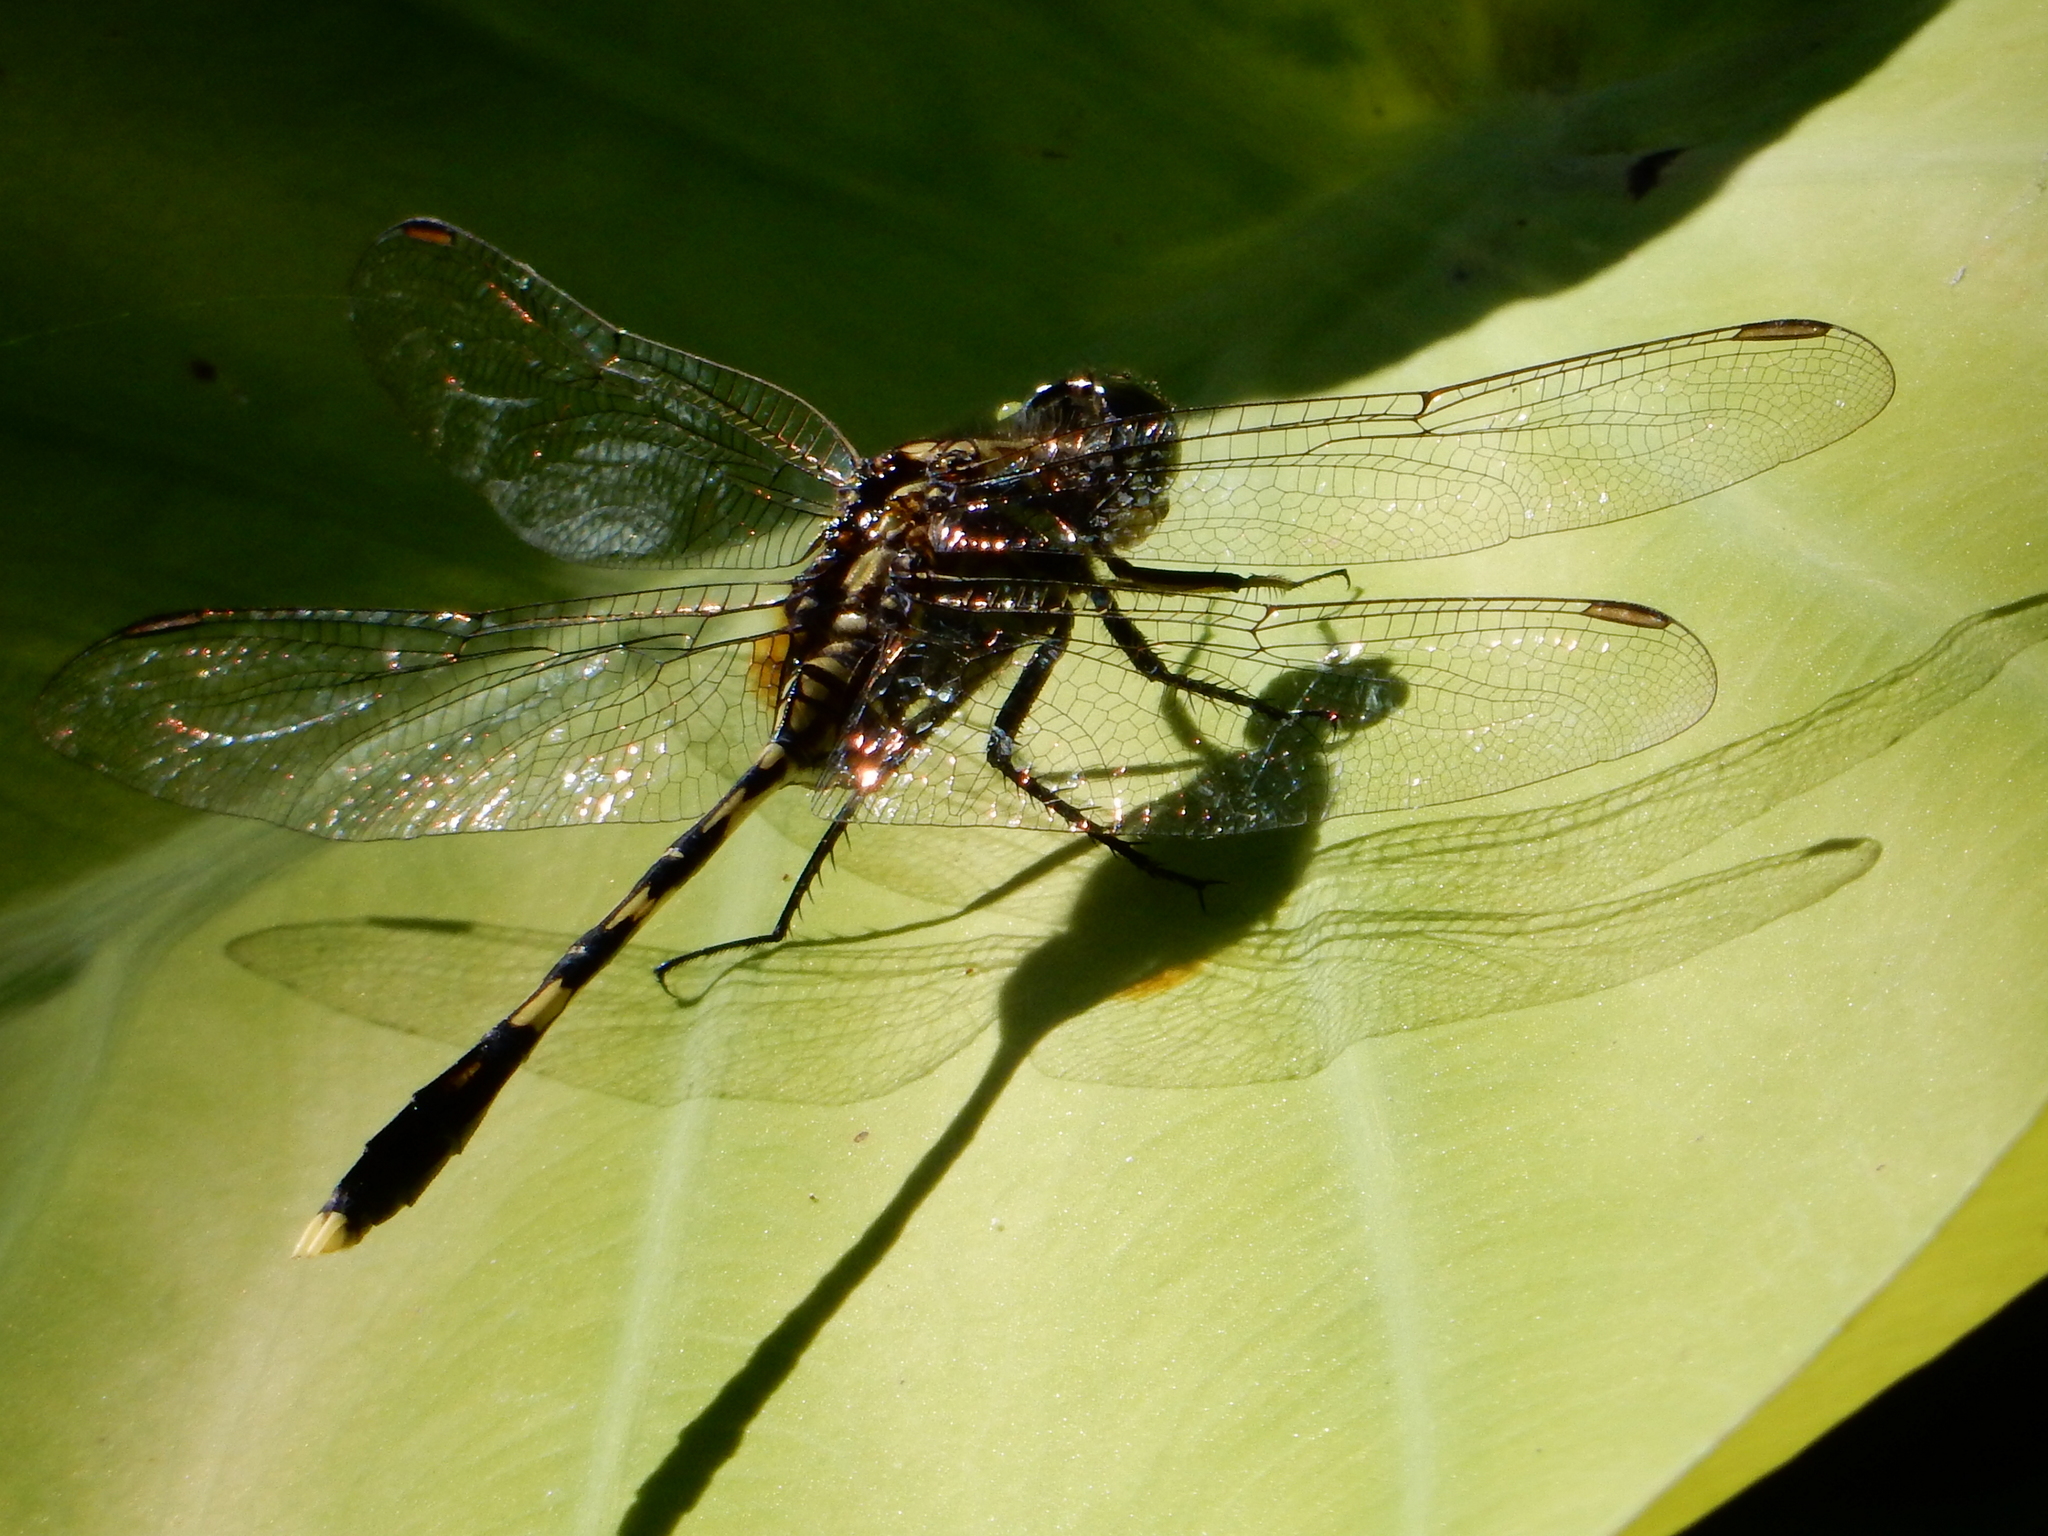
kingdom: Animalia
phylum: Arthropoda
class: Insecta
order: Odonata
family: Libellulidae
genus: Orthetrum
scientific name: Orthetrum serapia
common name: Green skimmer
